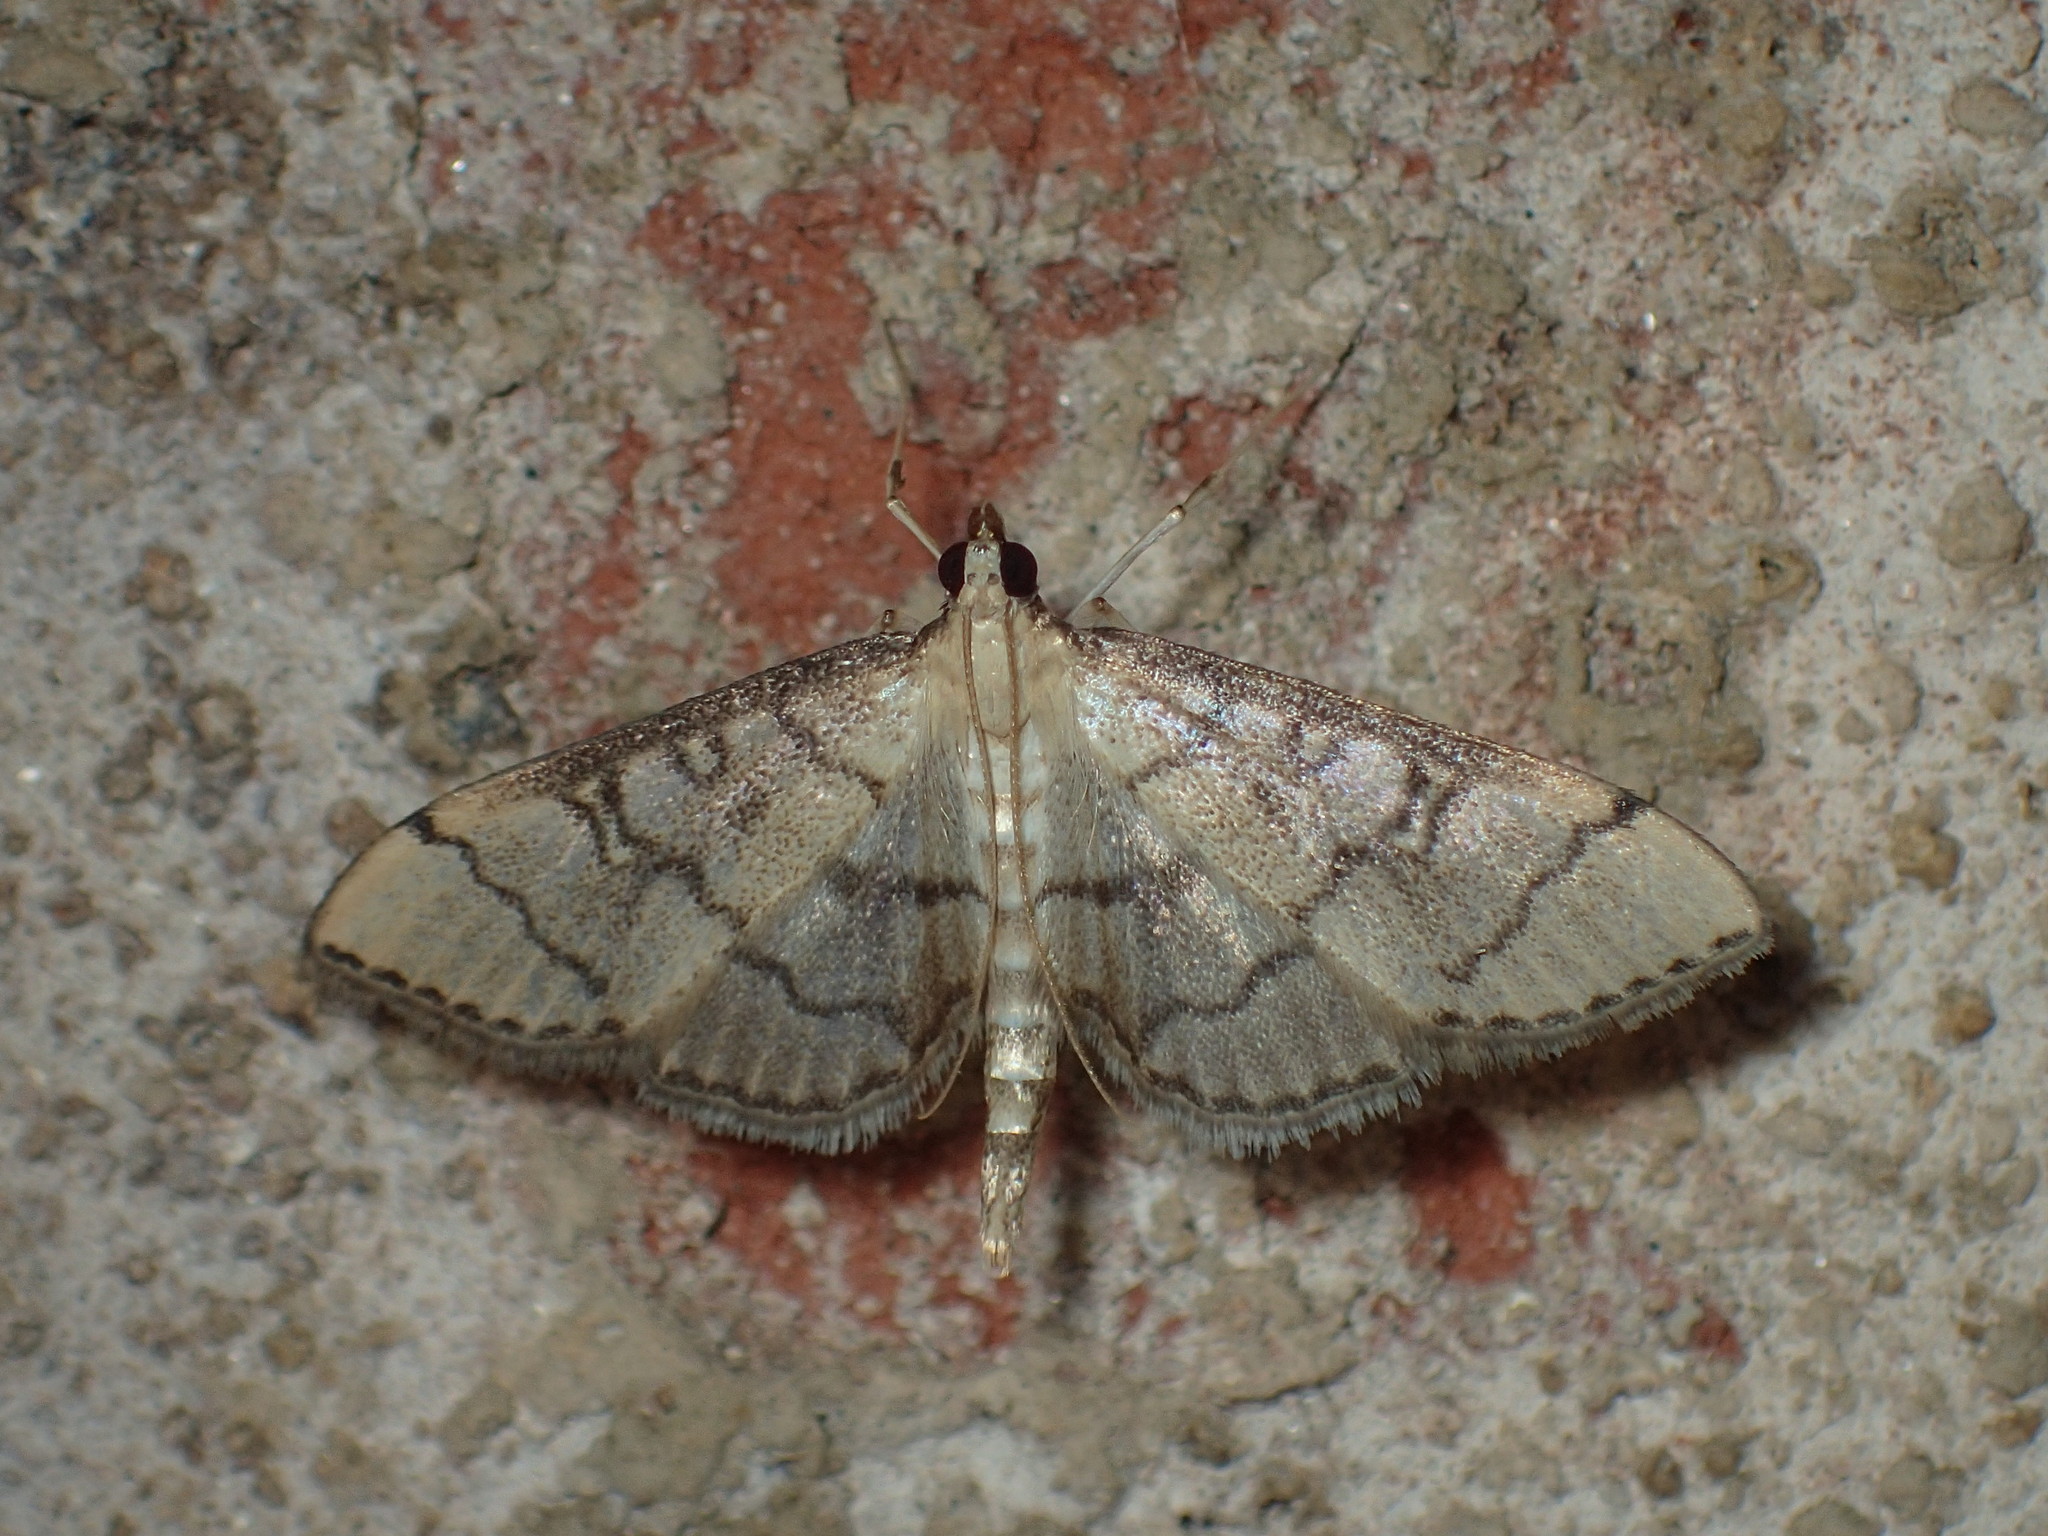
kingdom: Animalia
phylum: Arthropoda
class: Insecta
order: Lepidoptera
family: Crambidae
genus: Lamprosema
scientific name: Lamprosema Blepharomastix ranalis
